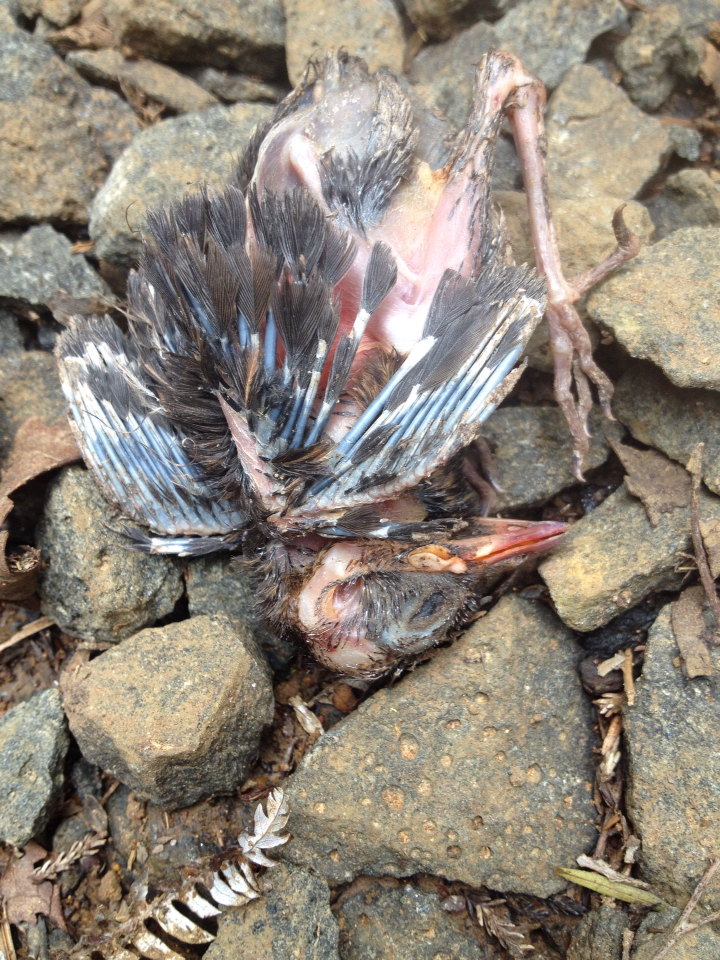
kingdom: Animalia
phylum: Chordata
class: Aves
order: Passeriformes
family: Turdidae
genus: Turdus
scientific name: Turdus merula
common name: Common blackbird
